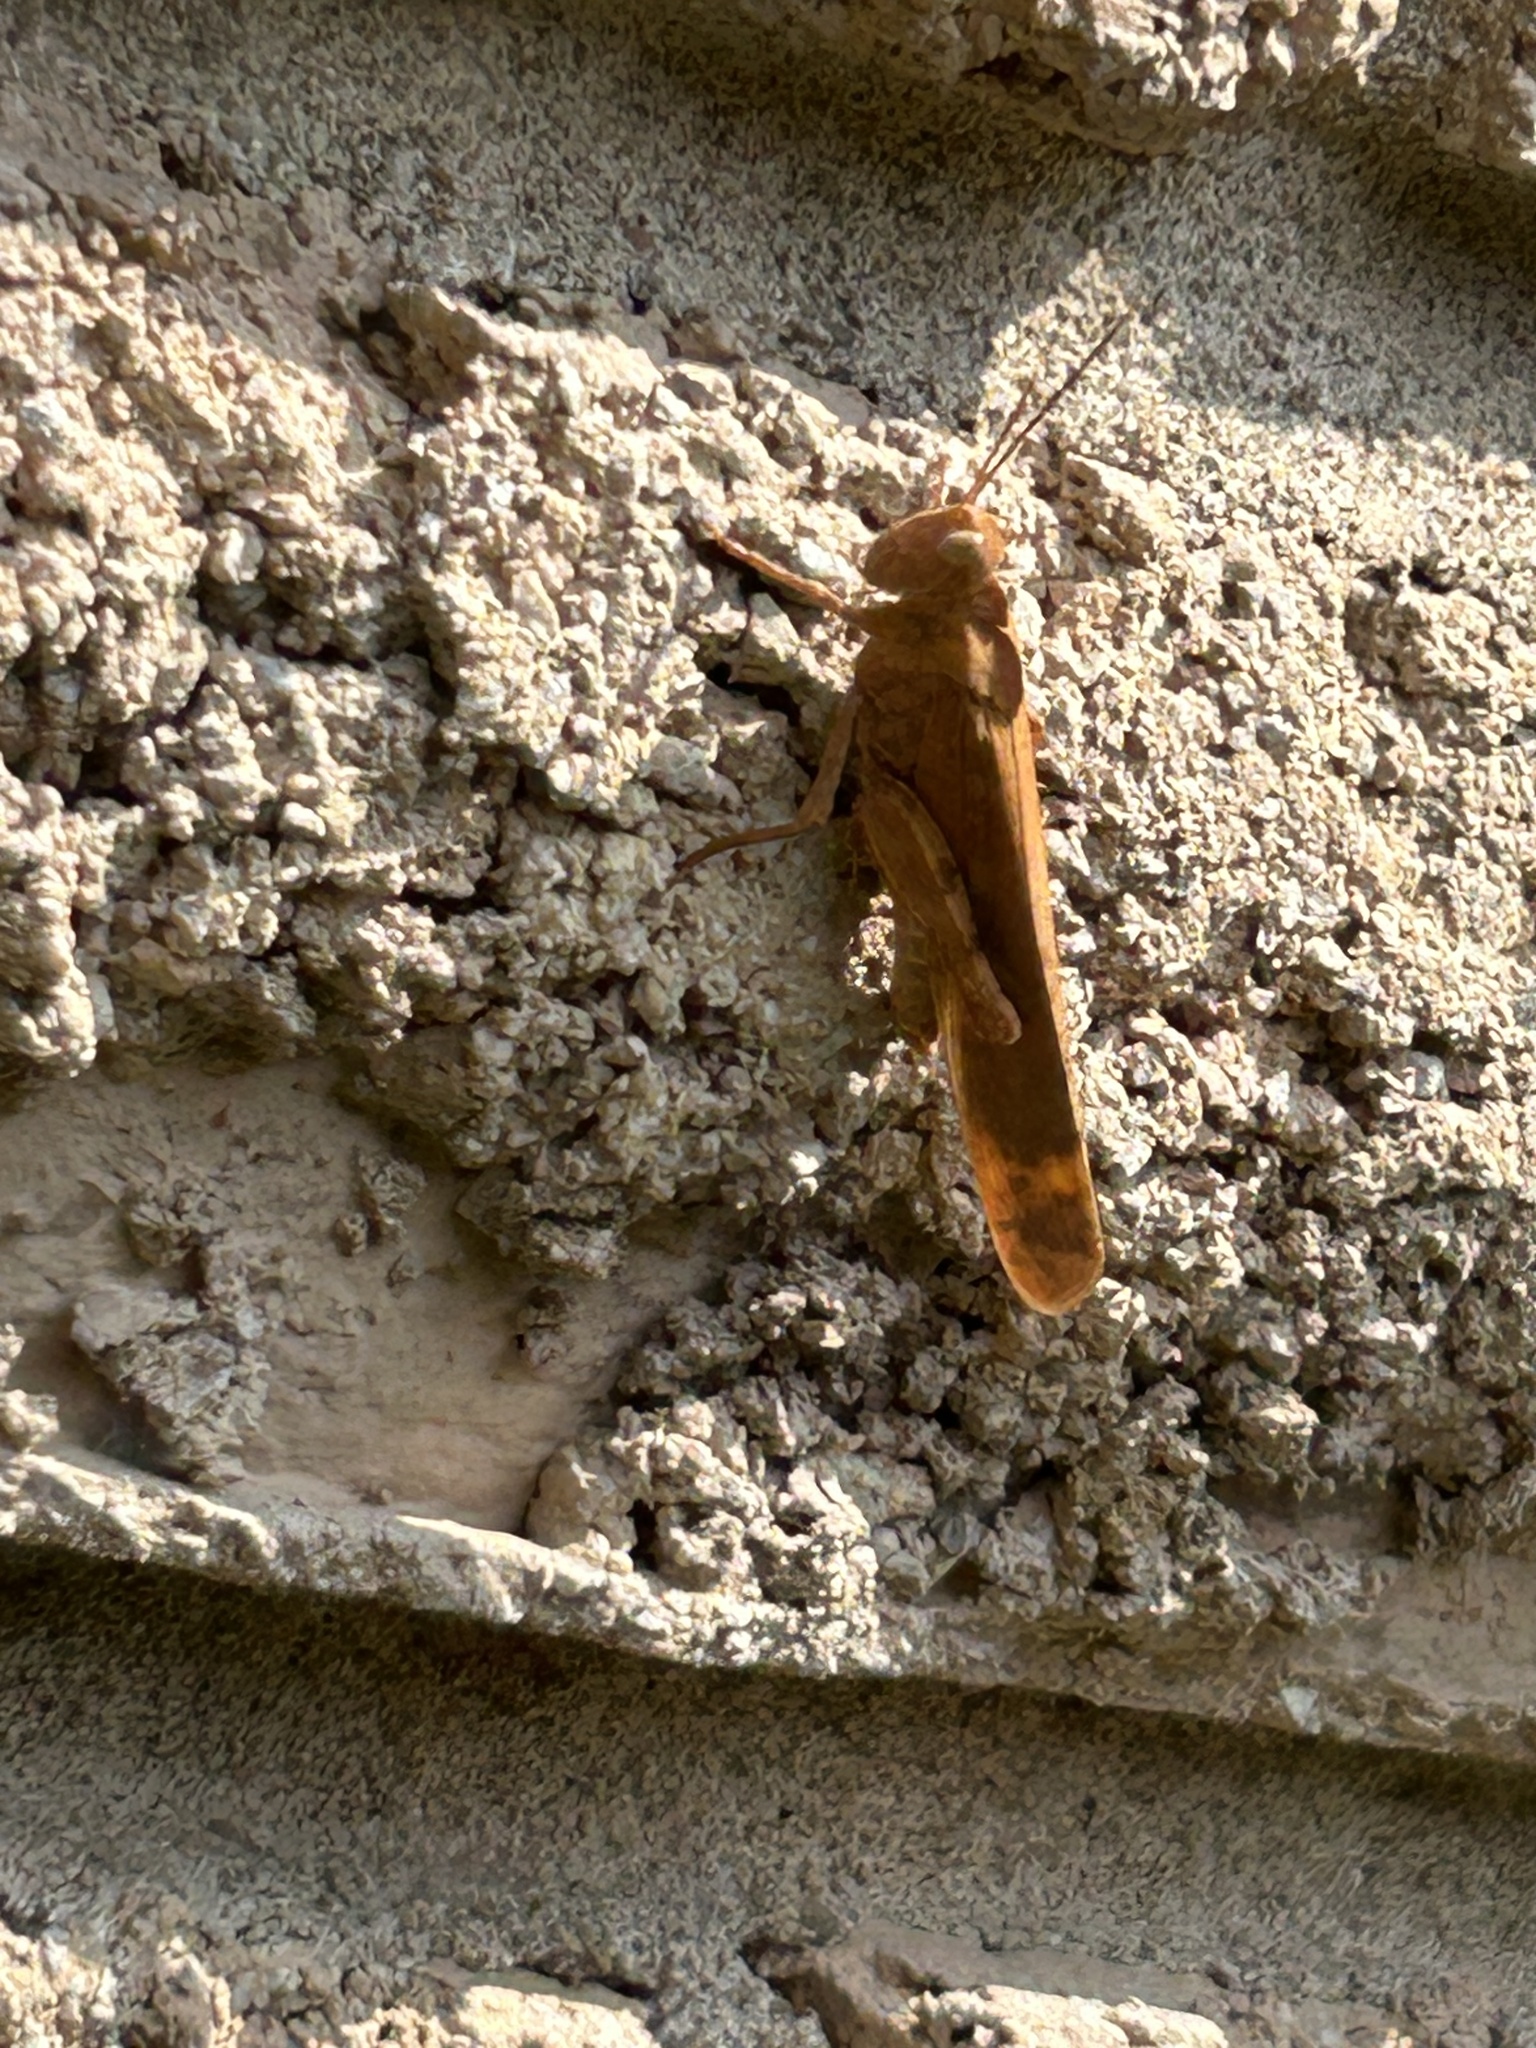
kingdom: Animalia
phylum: Arthropoda
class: Insecta
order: Orthoptera
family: Acrididae
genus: Dissosteira
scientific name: Dissosteira carolina
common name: Carolina grasshopper
